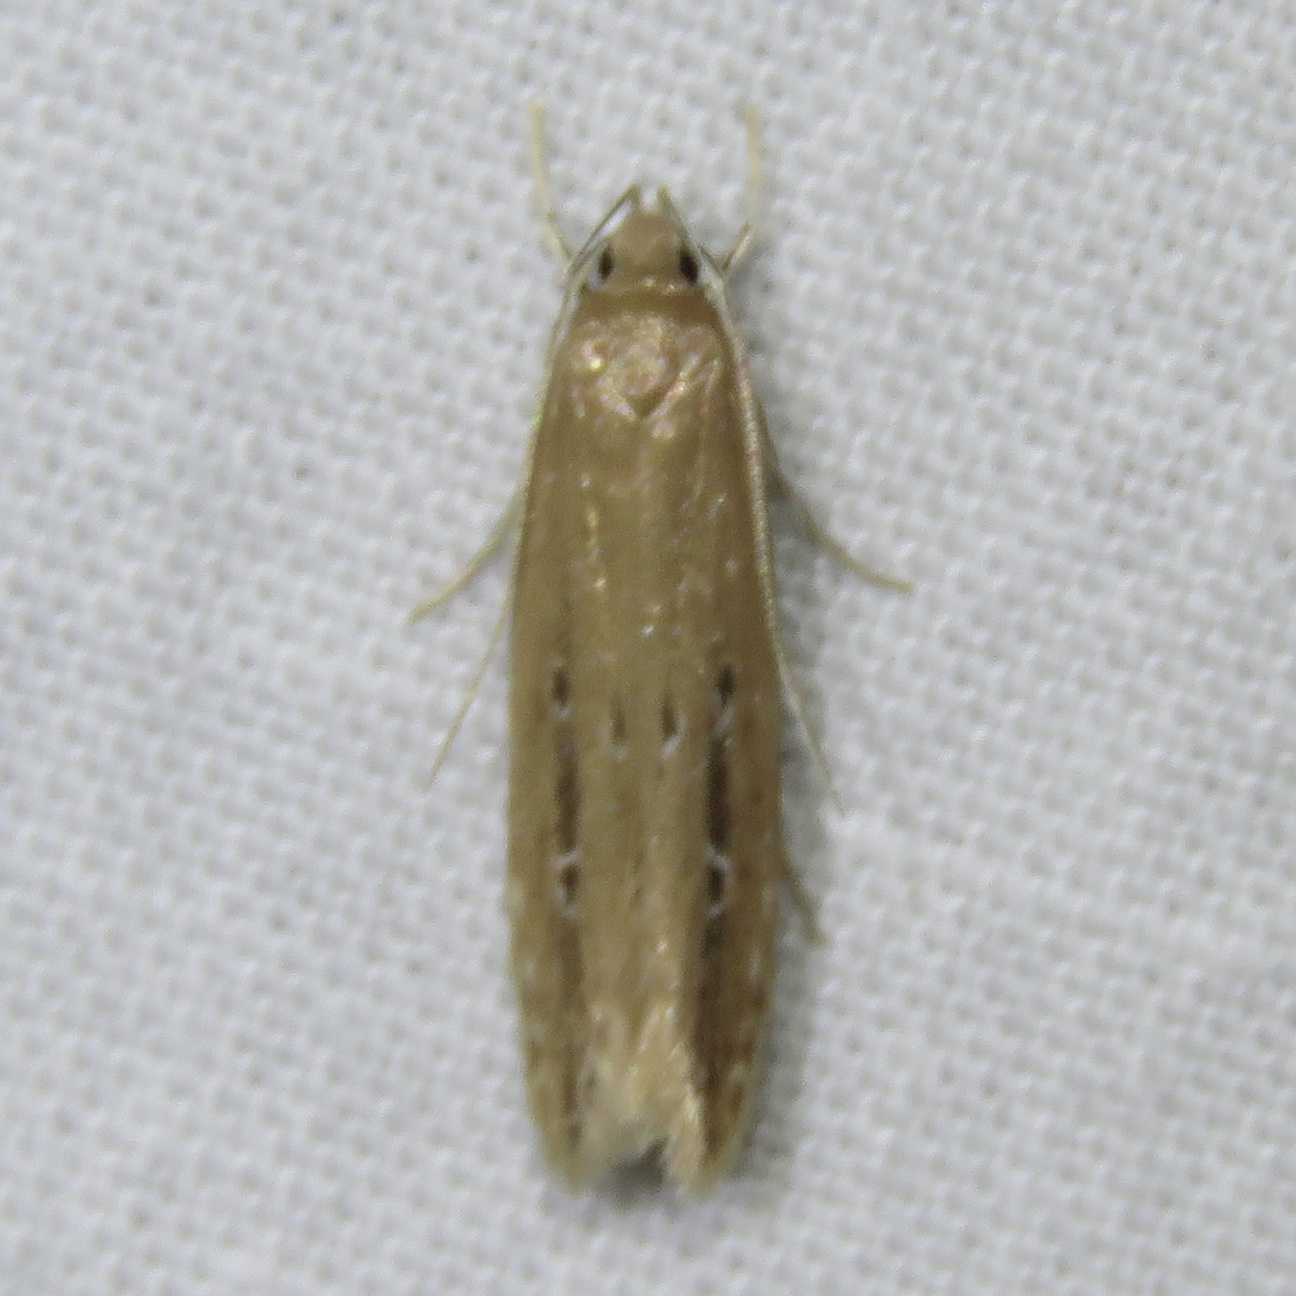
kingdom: Animalia
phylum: Arthropoda
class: Insecta
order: Lepidoptera
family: Cosmopterigidae
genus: Limnaecia
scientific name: Limnaecia phragmitella
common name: Bulrush cosmet
